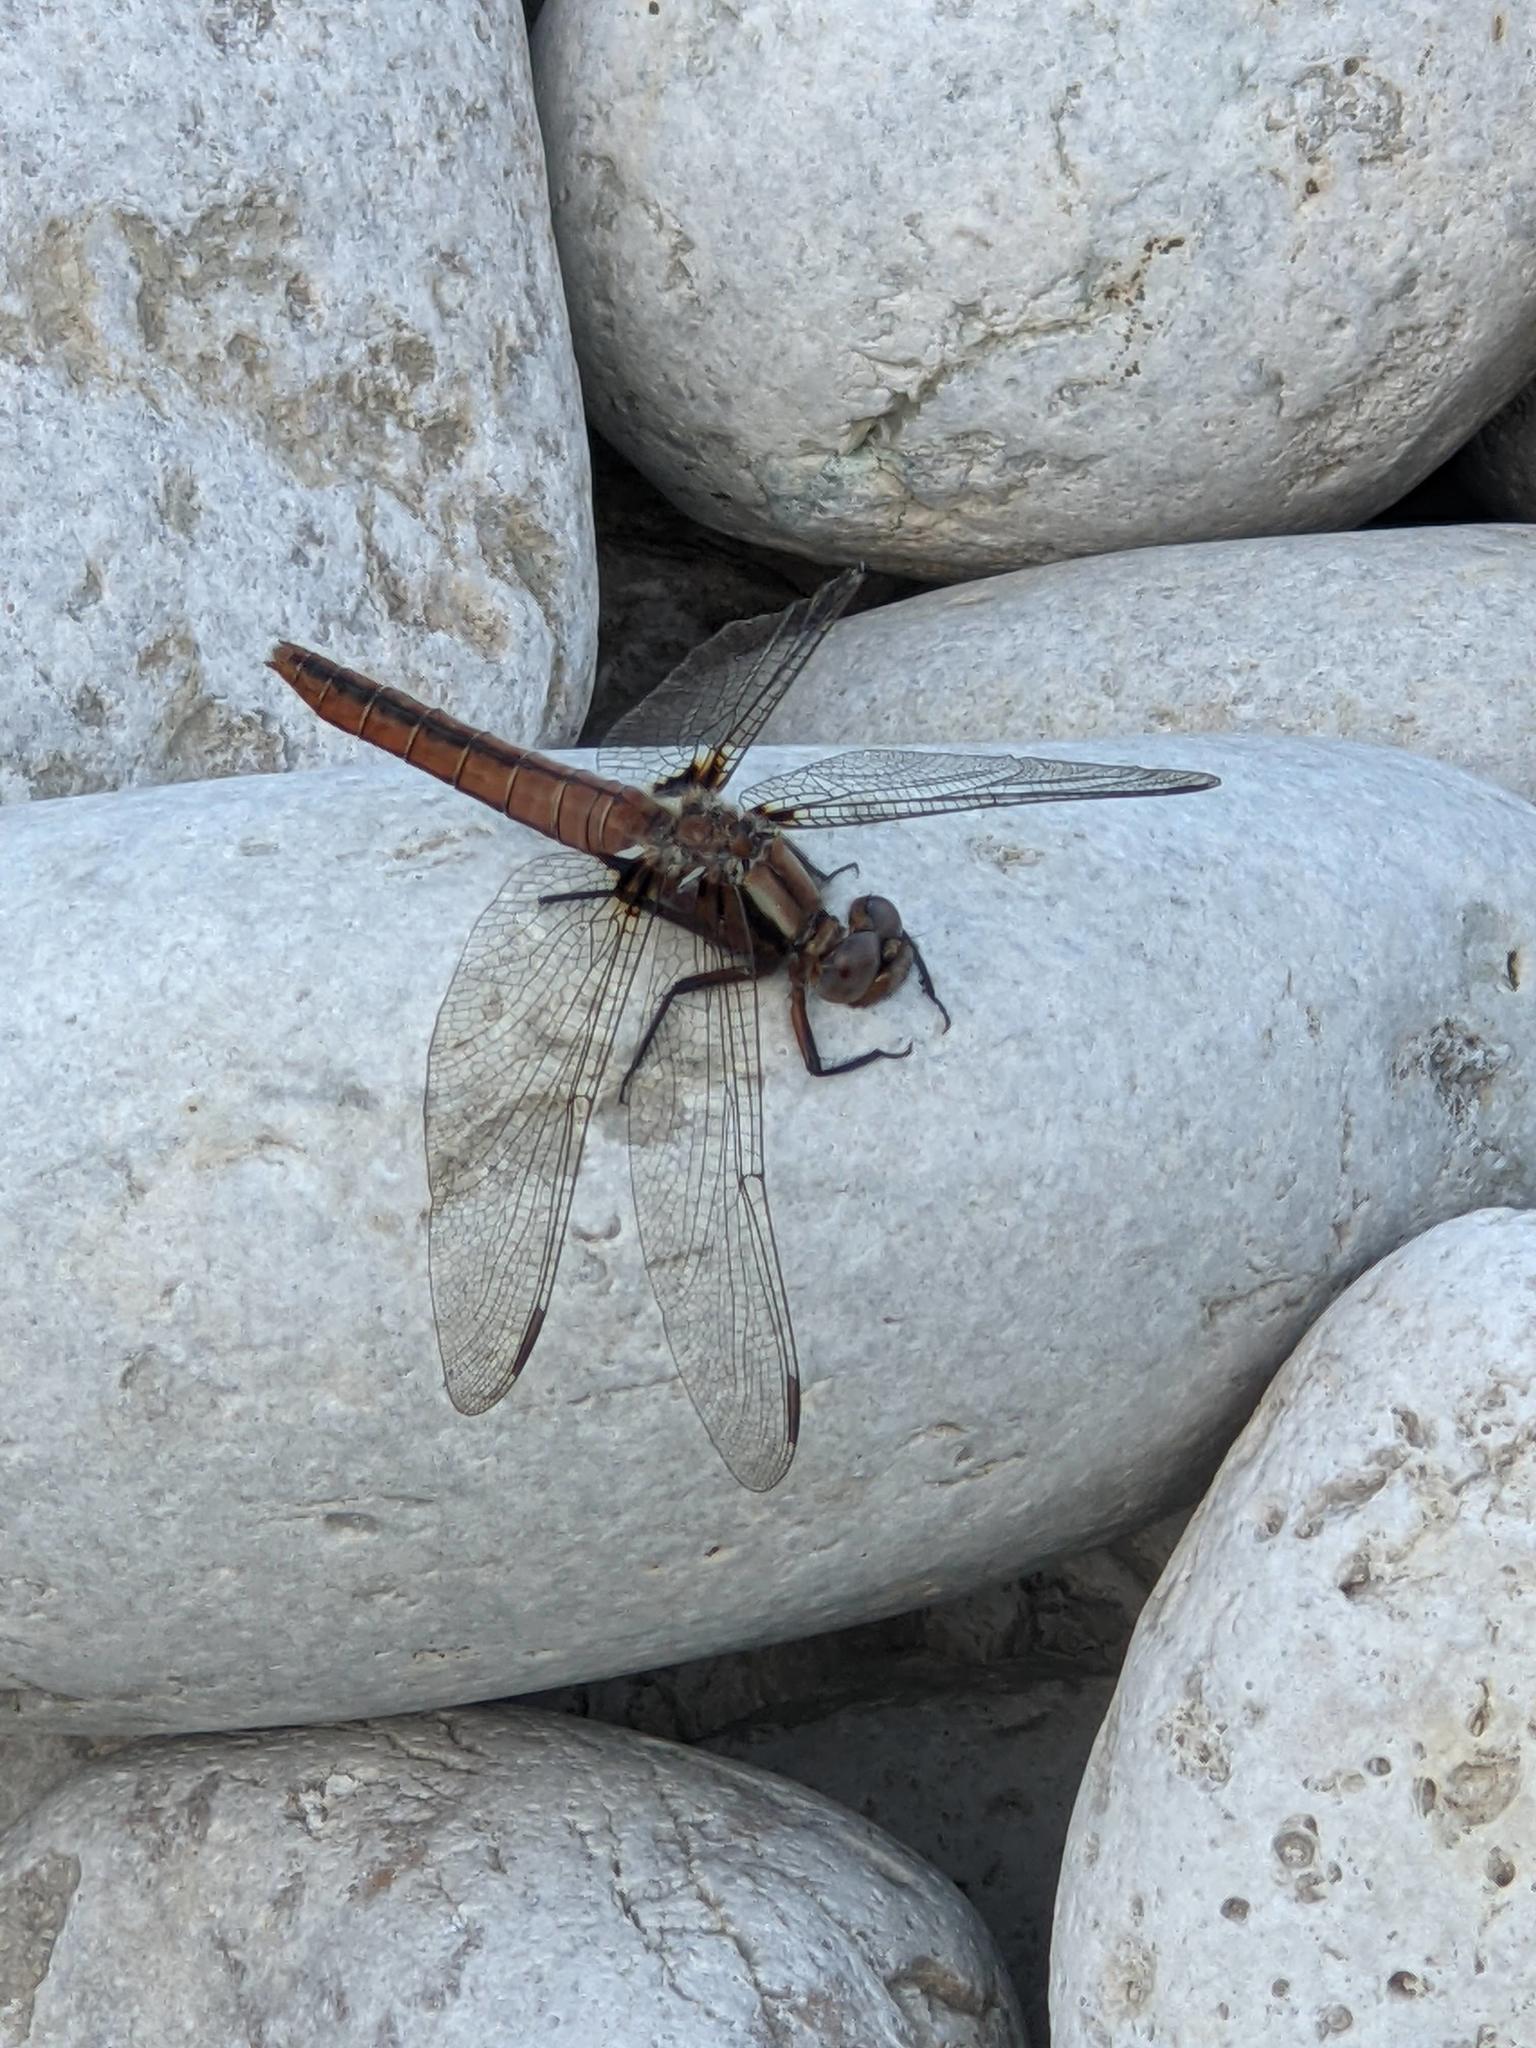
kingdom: Animalia
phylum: Arthropoda
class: Insecta
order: Odonata
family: Libellulidae
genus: Ladona
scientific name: Ladona julia
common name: Chalk-fronted corporal
